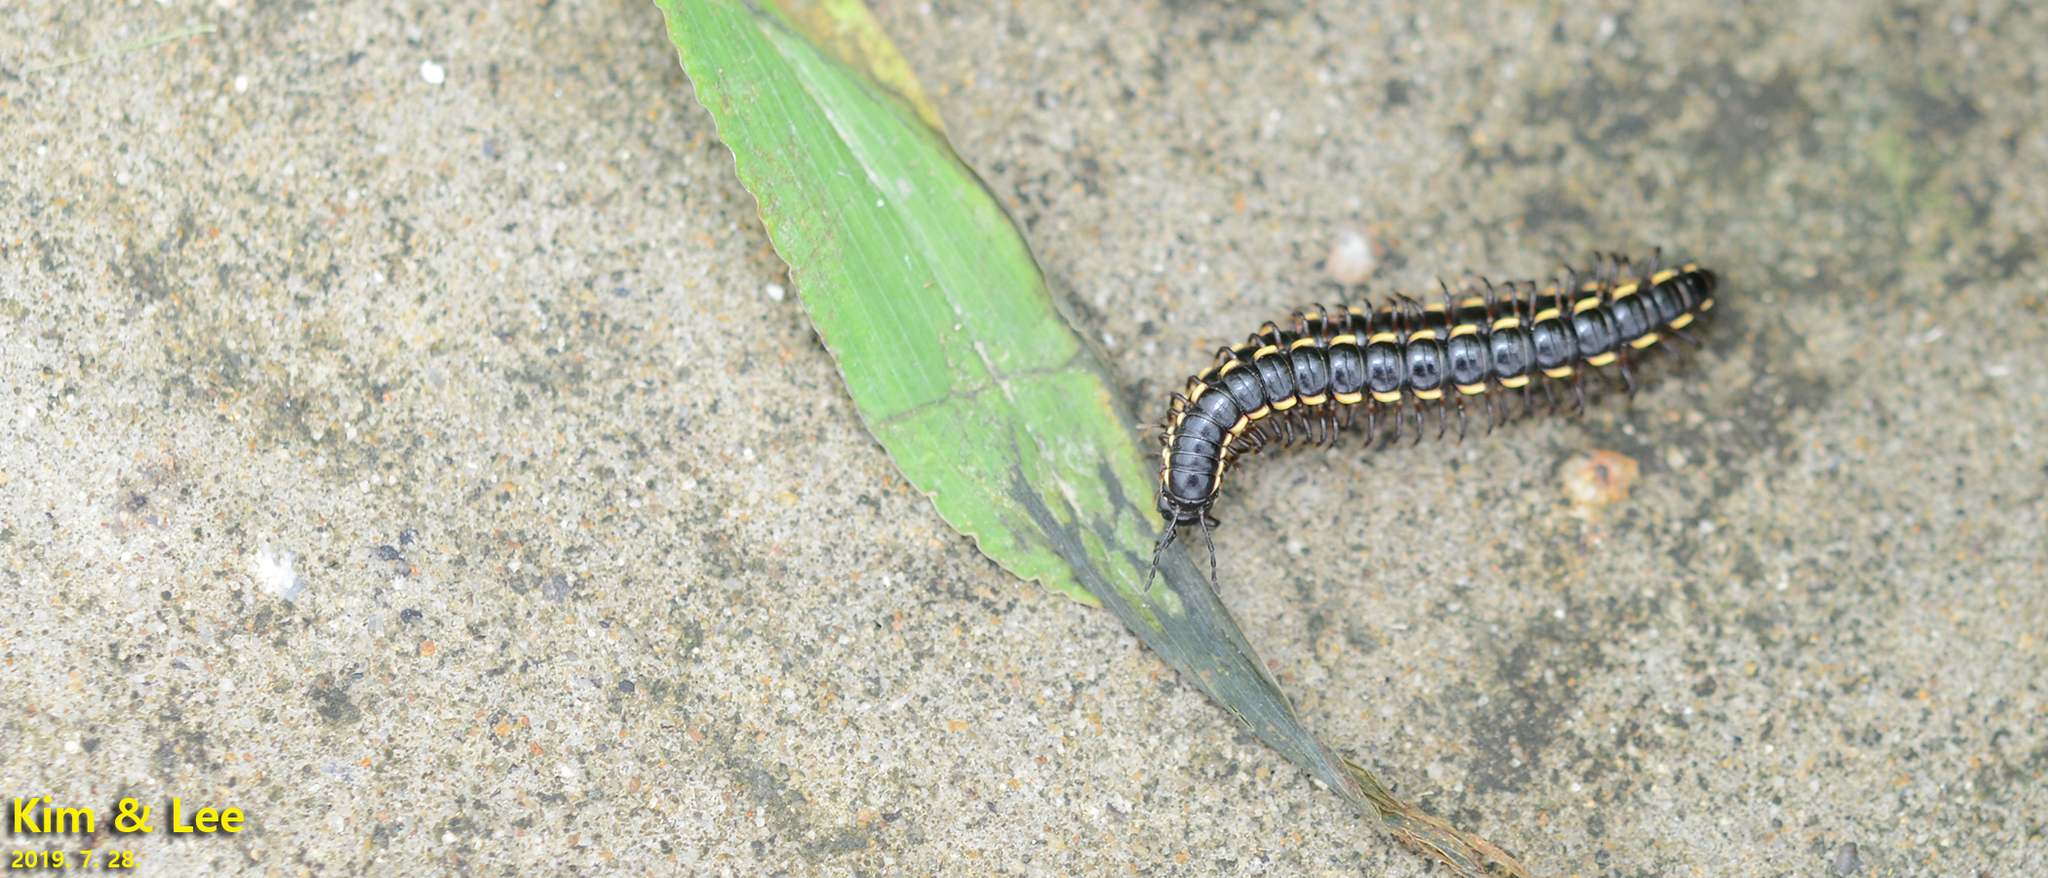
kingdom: Animalia
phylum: Arthropoda
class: Diplopoda
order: Polydesmida
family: Paradoxosomatidae
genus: Orthomorphella
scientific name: Orthomorphella pekuensis
